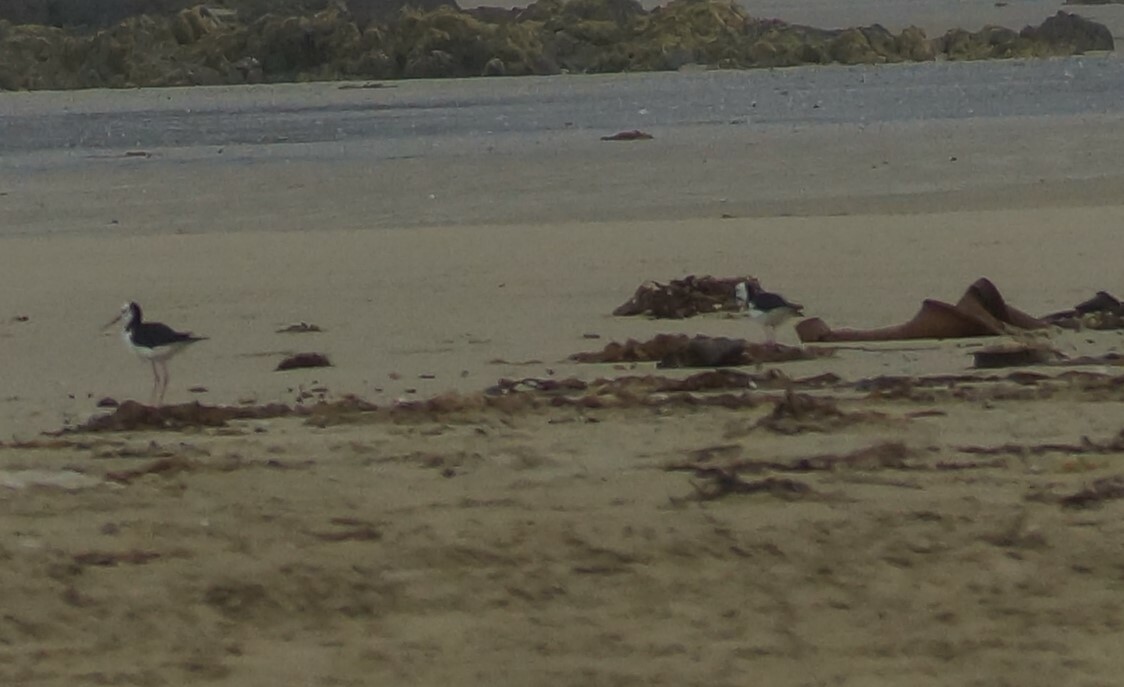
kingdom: Animalia
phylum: Chordata
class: Aves
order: Charadriiformes
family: Recurvirostridae
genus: Himantopus
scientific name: Himantopus leucocephalus
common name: White-headed stilt
